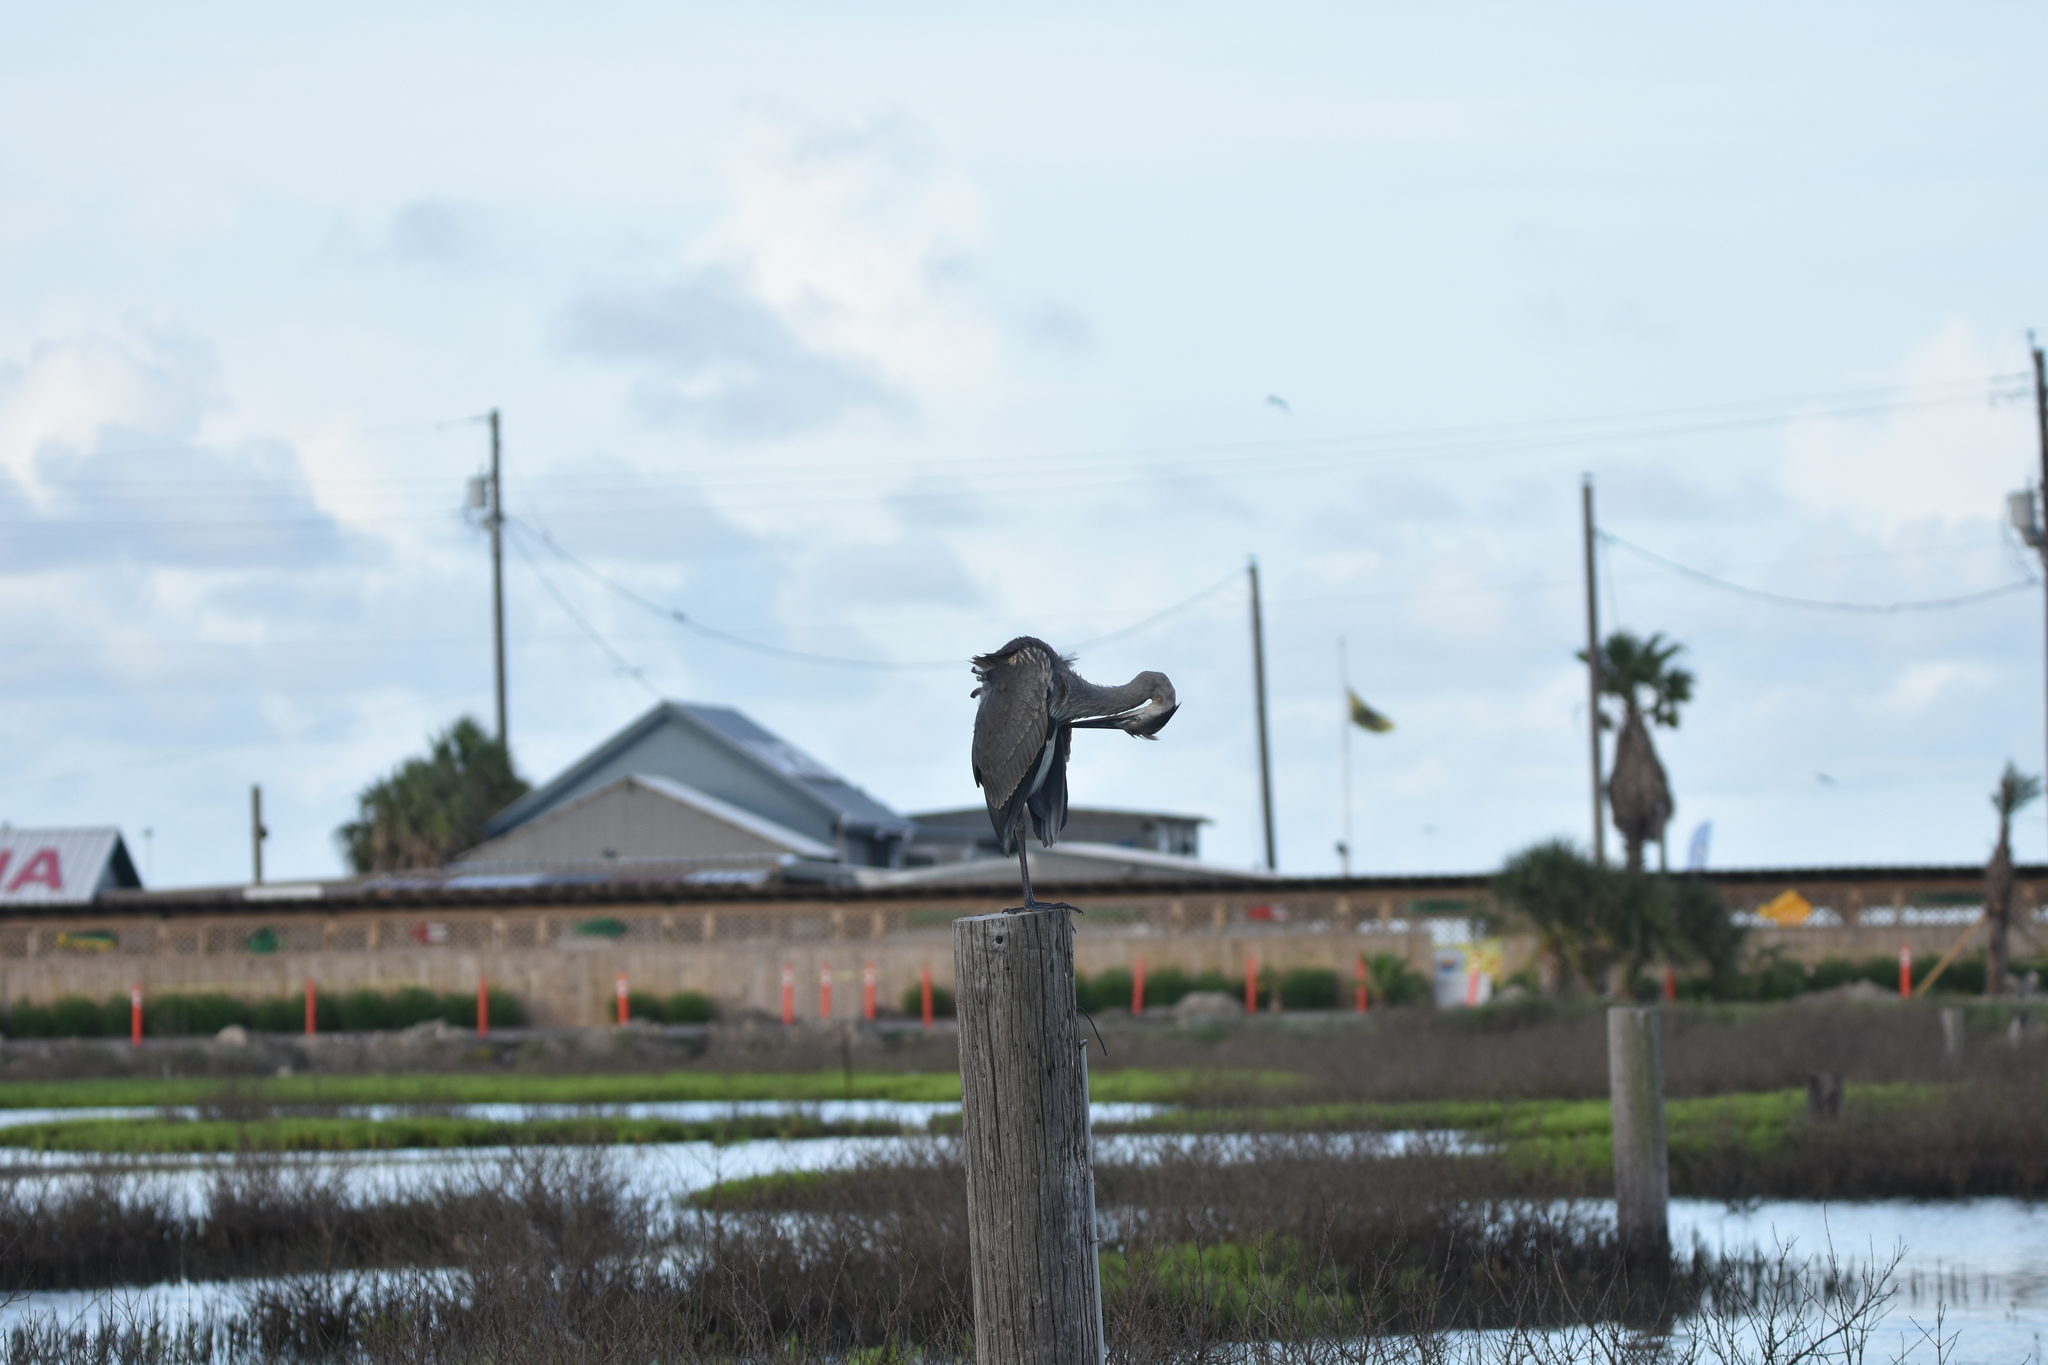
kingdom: Animalia
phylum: Chordata
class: Aves
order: Pelecaniformes
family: Ardeidae
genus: Ardea
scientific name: Ardea herodias
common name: Great blue heron
